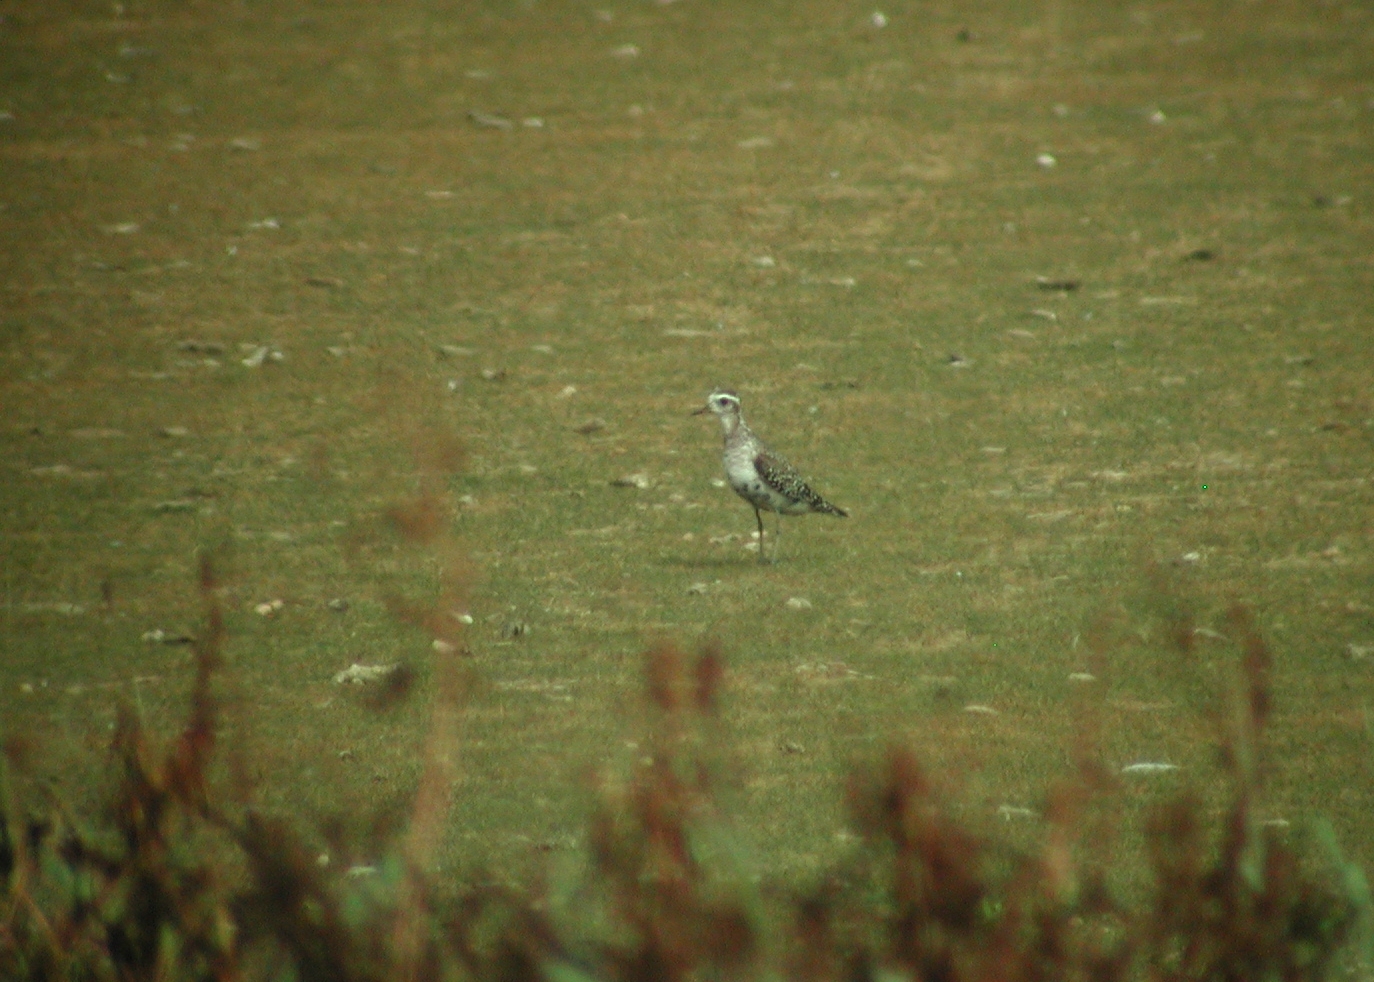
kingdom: Animalia
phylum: Chordata
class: Aves
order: Charadriiformes
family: Charadriidae
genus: Pluvialis
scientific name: Pluvialis dominica
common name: American golden plover
